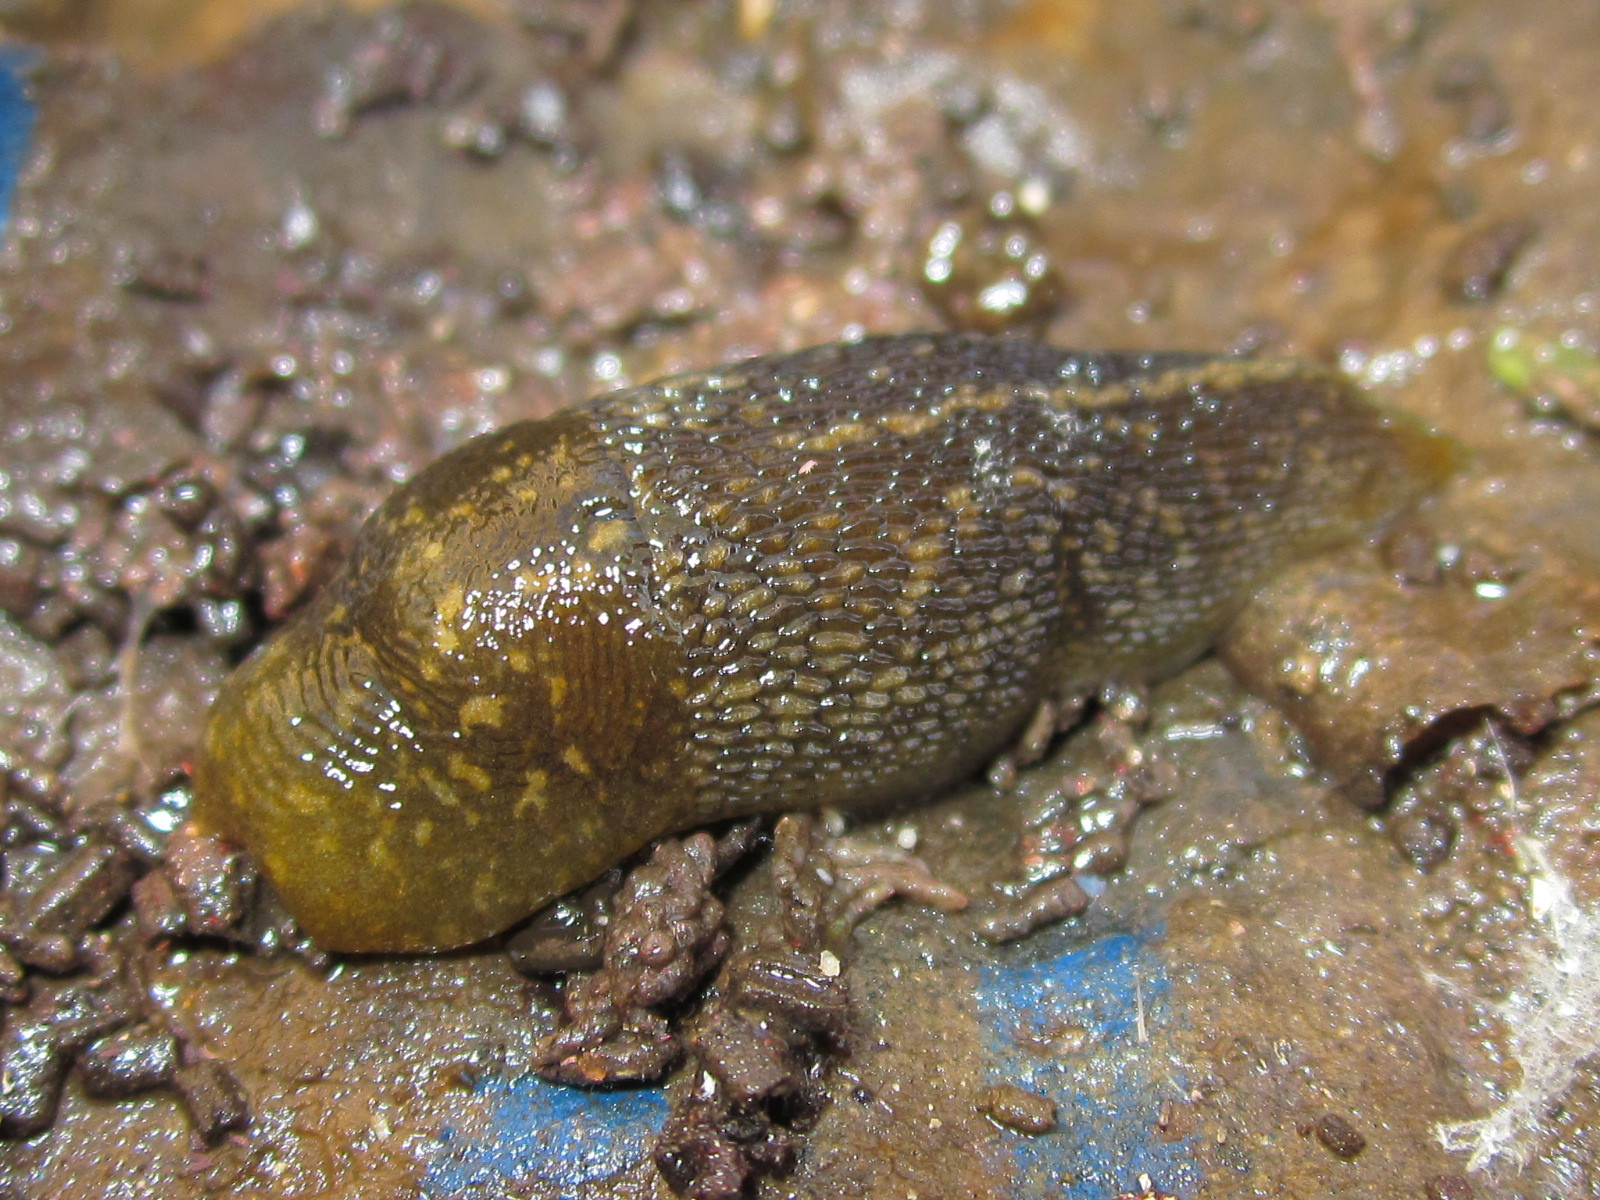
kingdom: Animalia
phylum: Mollusca
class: Gastropoda
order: Stylommatophora
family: Limacidae
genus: Limacus
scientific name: Limacus flavus
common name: Yellow gardenslug
